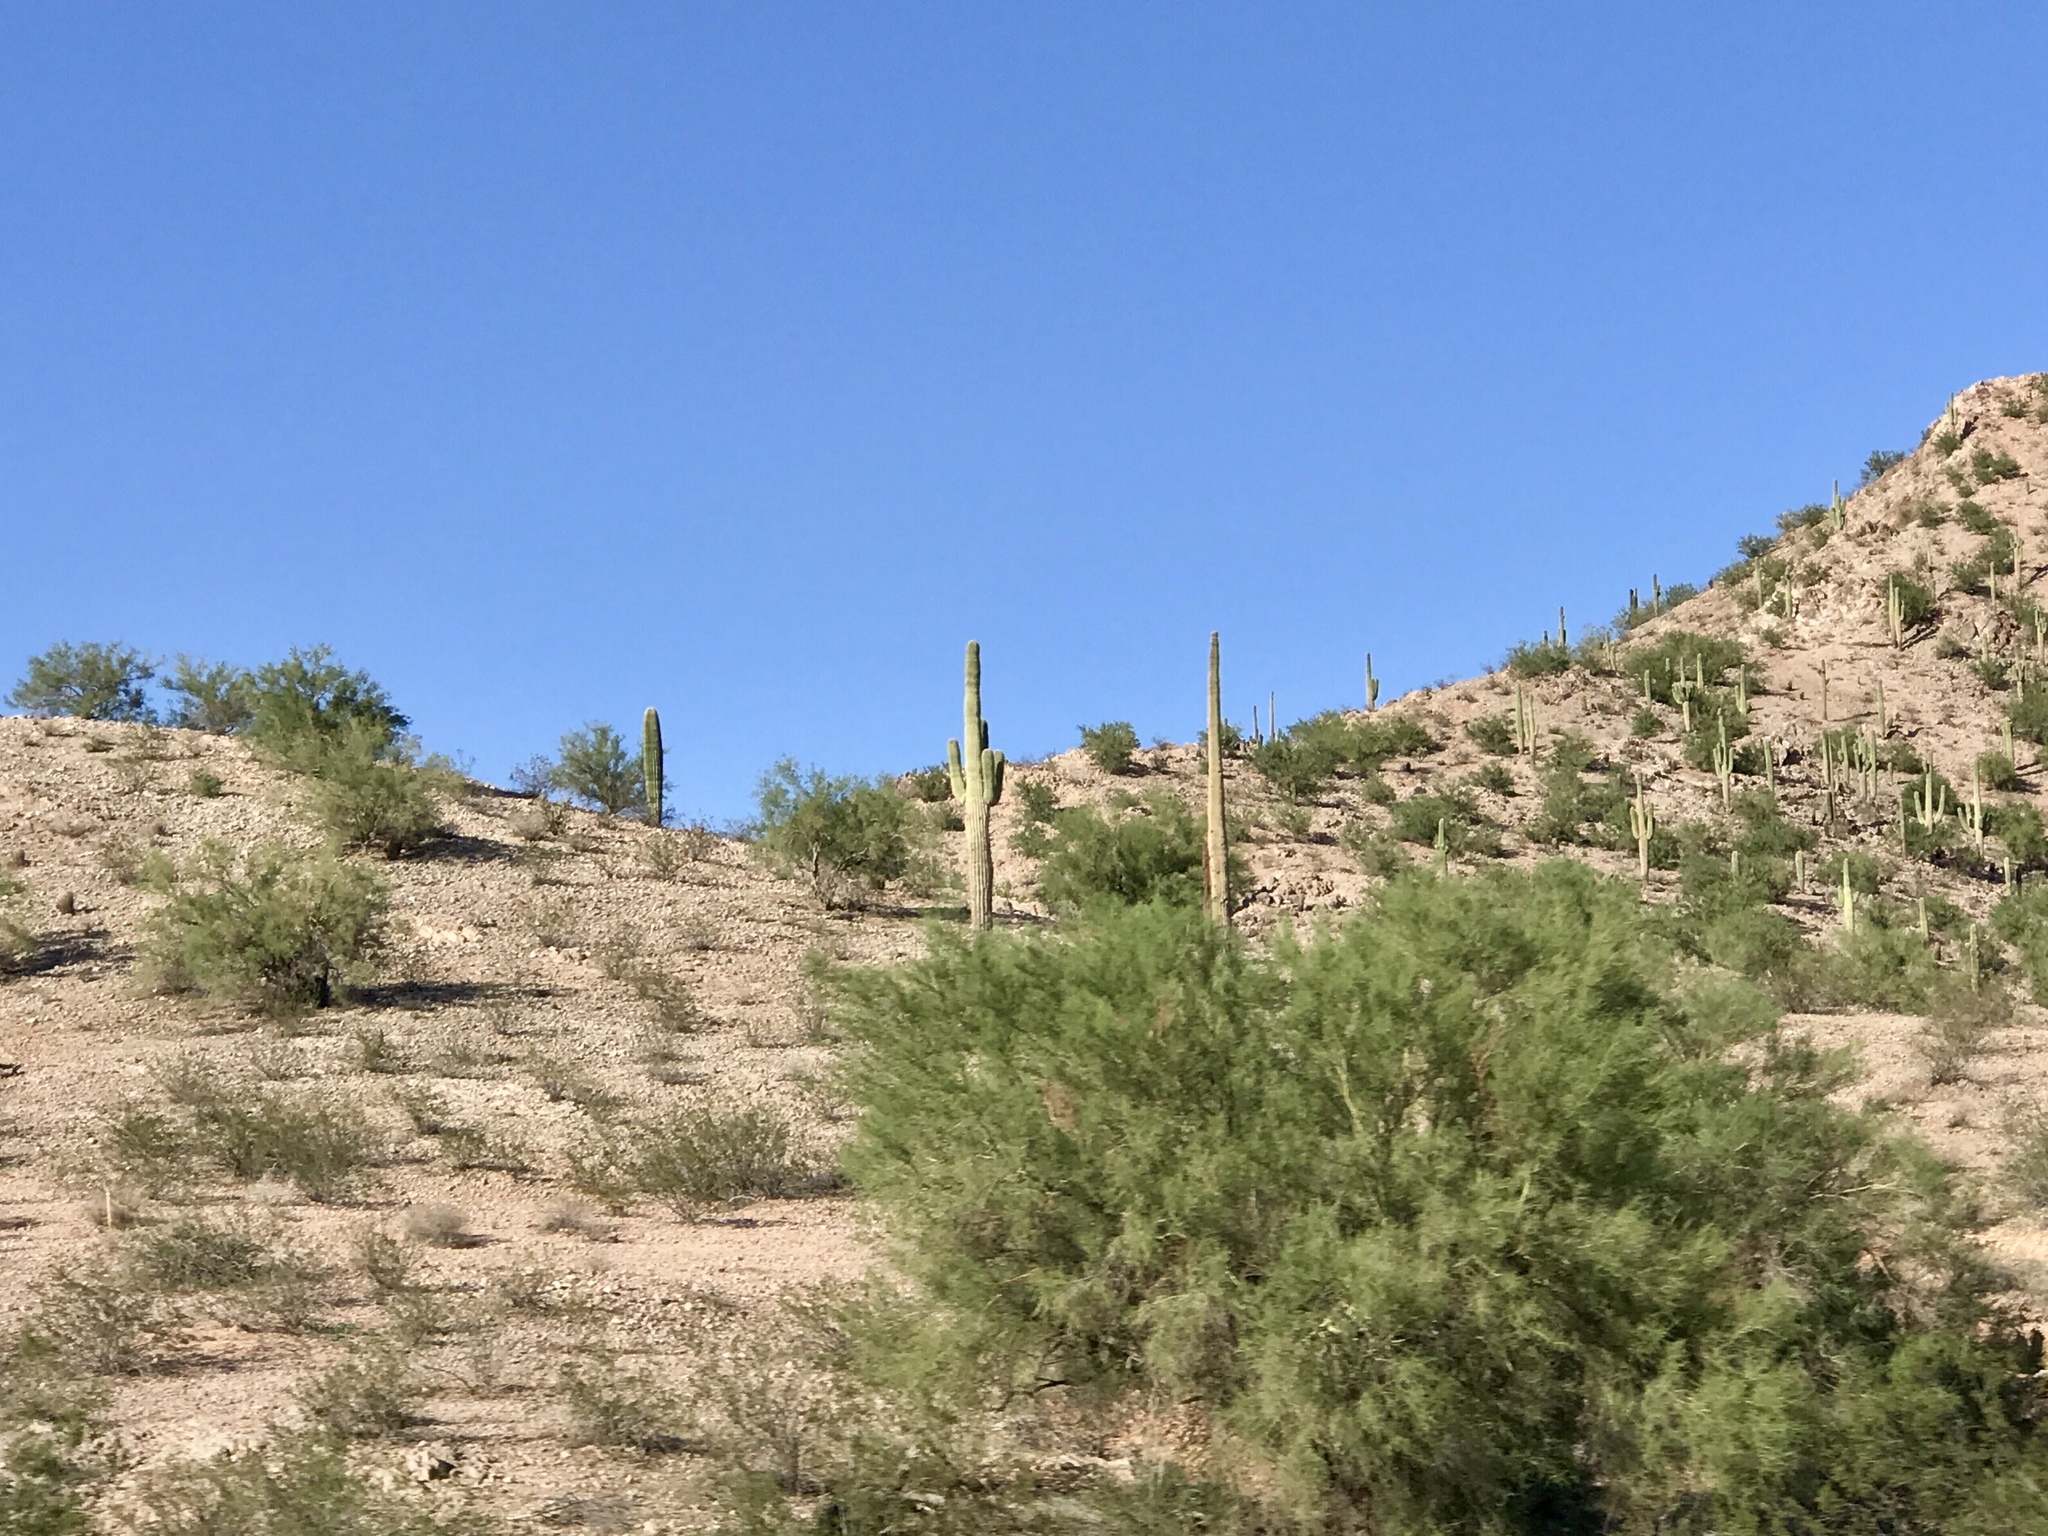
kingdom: Plantae
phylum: Tracheophyta
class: Magnoliopsida
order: Caryophyllales
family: Cactaceae
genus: Carnegiea
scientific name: Carnegiea gigantea
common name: Saguaro
